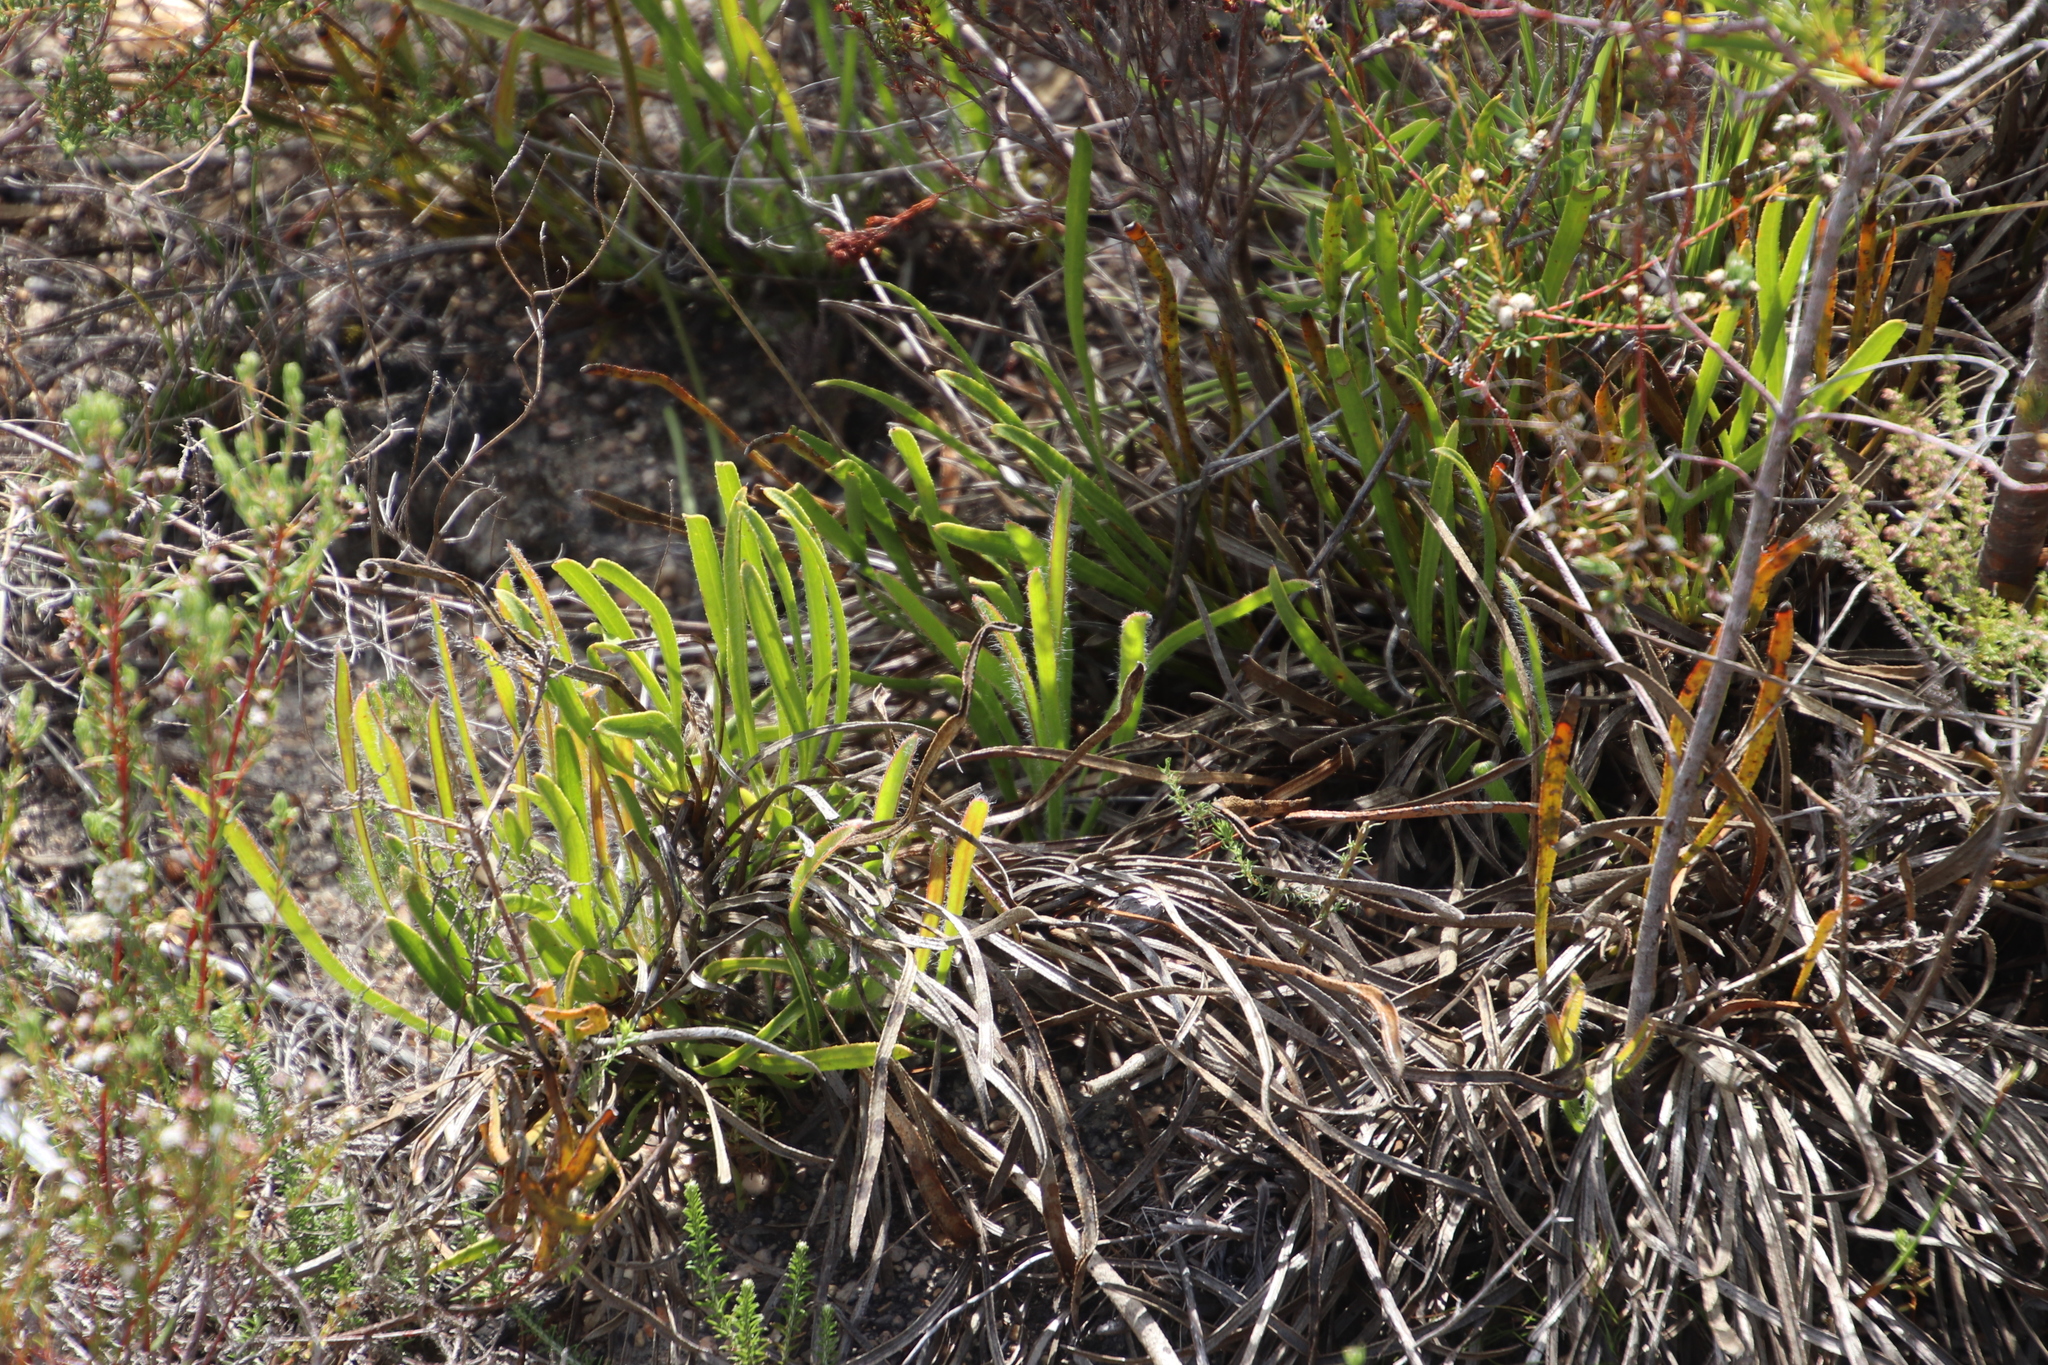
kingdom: Plantae
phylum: Tracheophyta
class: Magnoliopsida
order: Proteales
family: Proteaceae
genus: Protea
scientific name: Protea aspera
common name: Rough-leaf sugarbush
